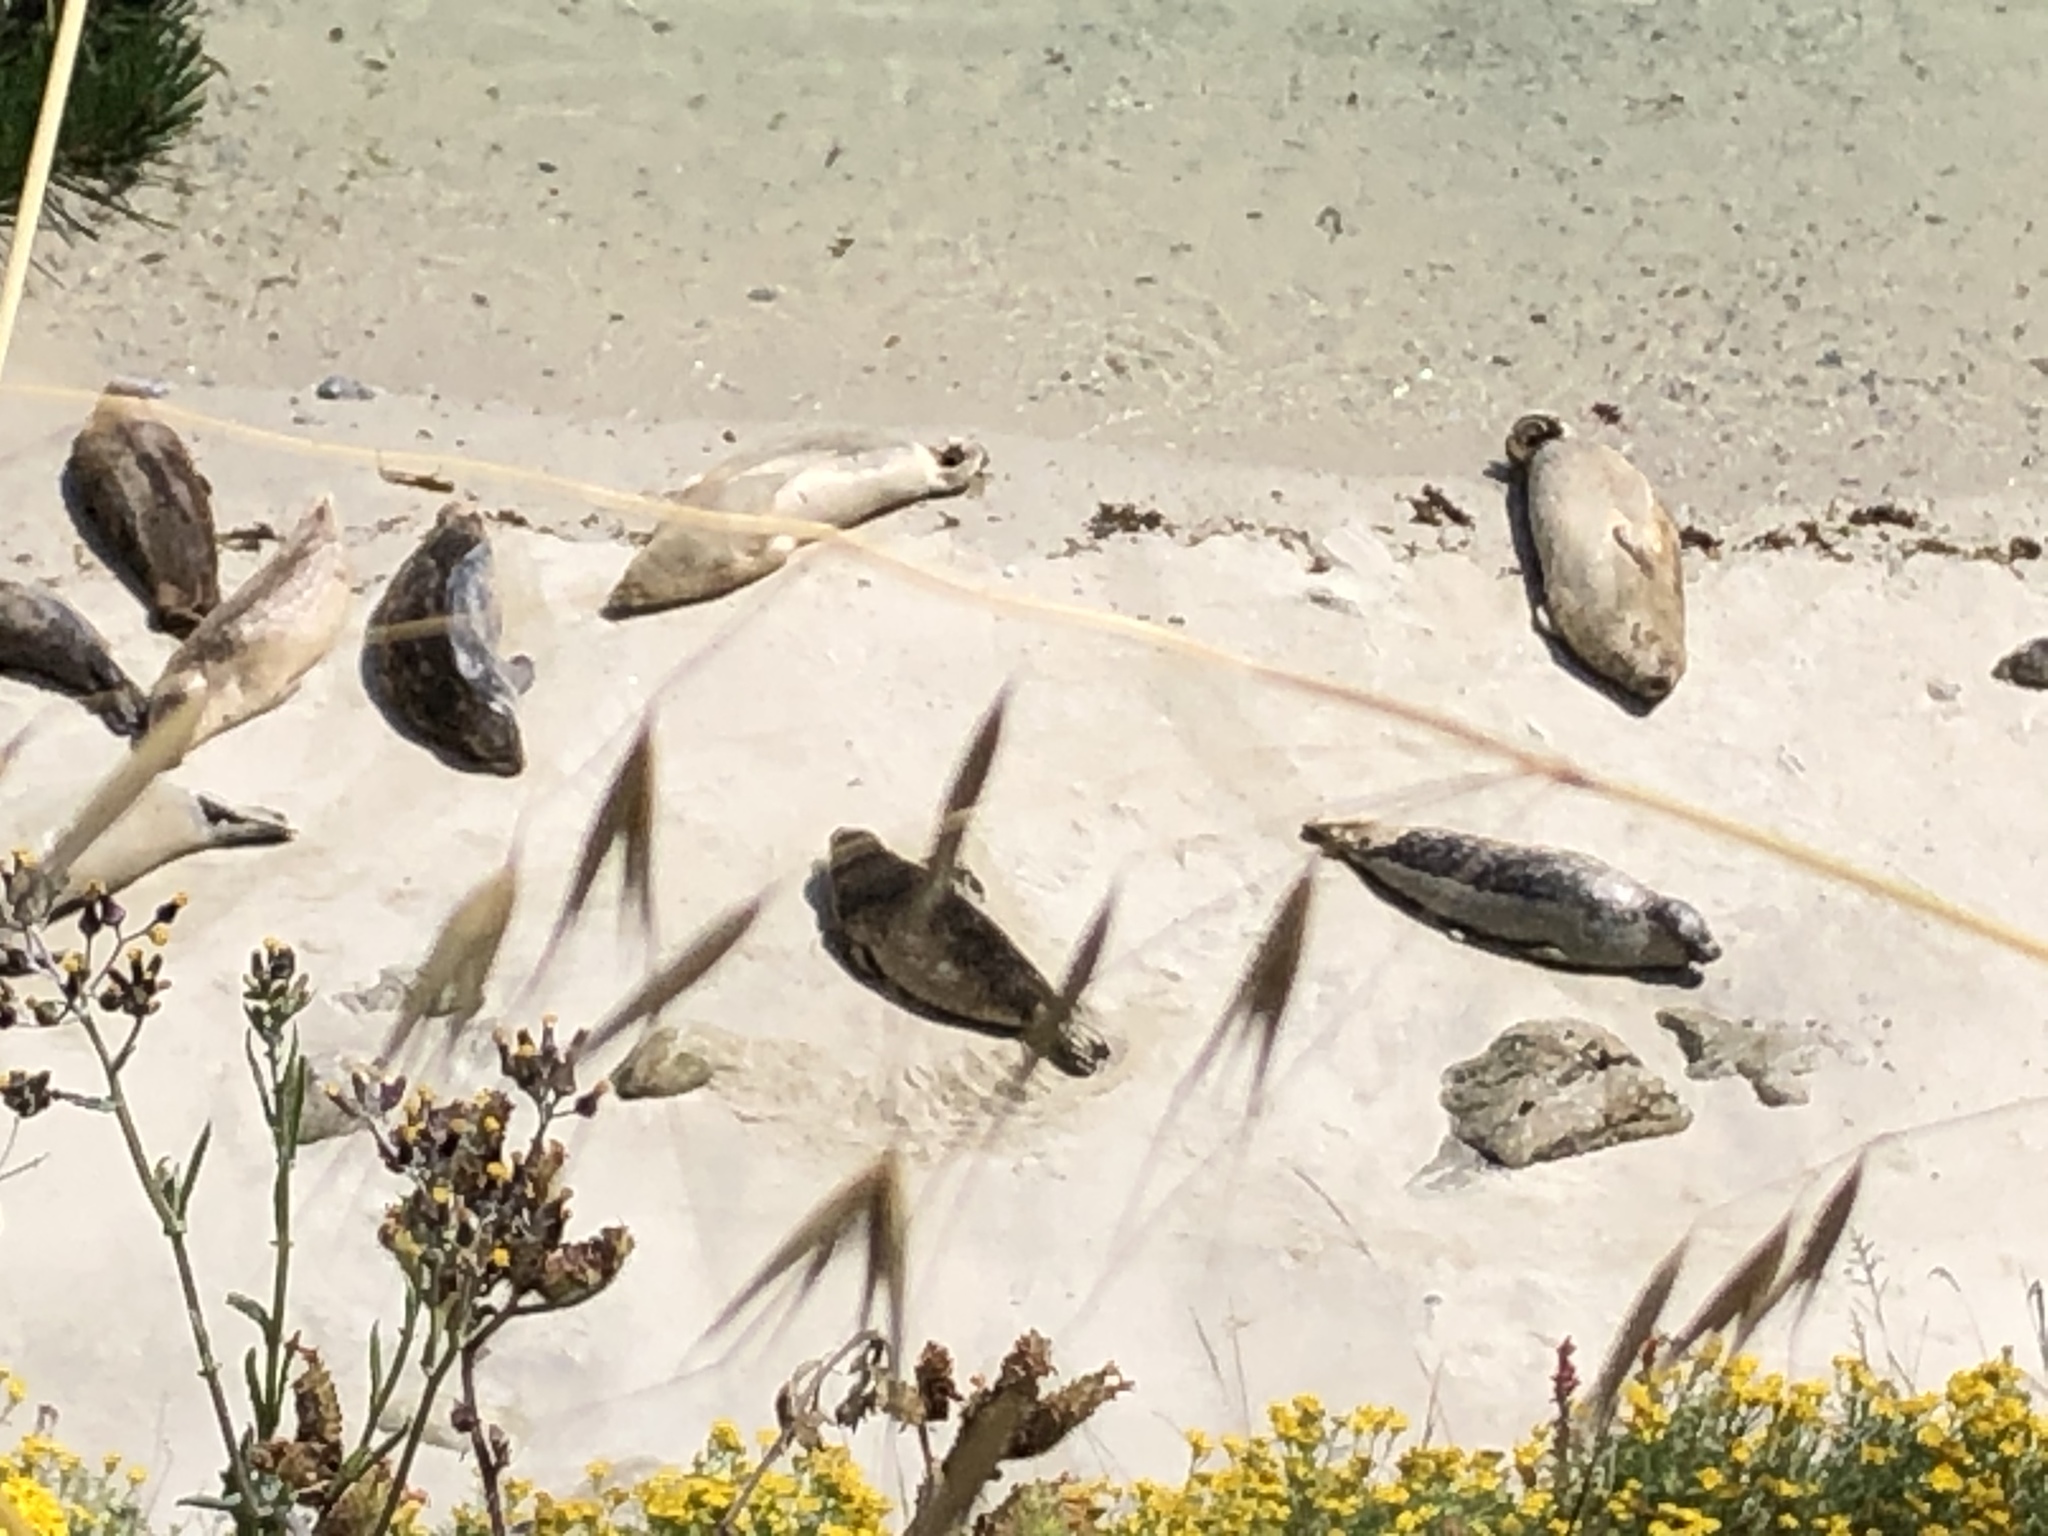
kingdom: Animalia
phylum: Chordata
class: Mammalia
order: Carnivora
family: Phocidae
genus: Phoca
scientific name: Phoca vitulina
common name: Harbor seal
